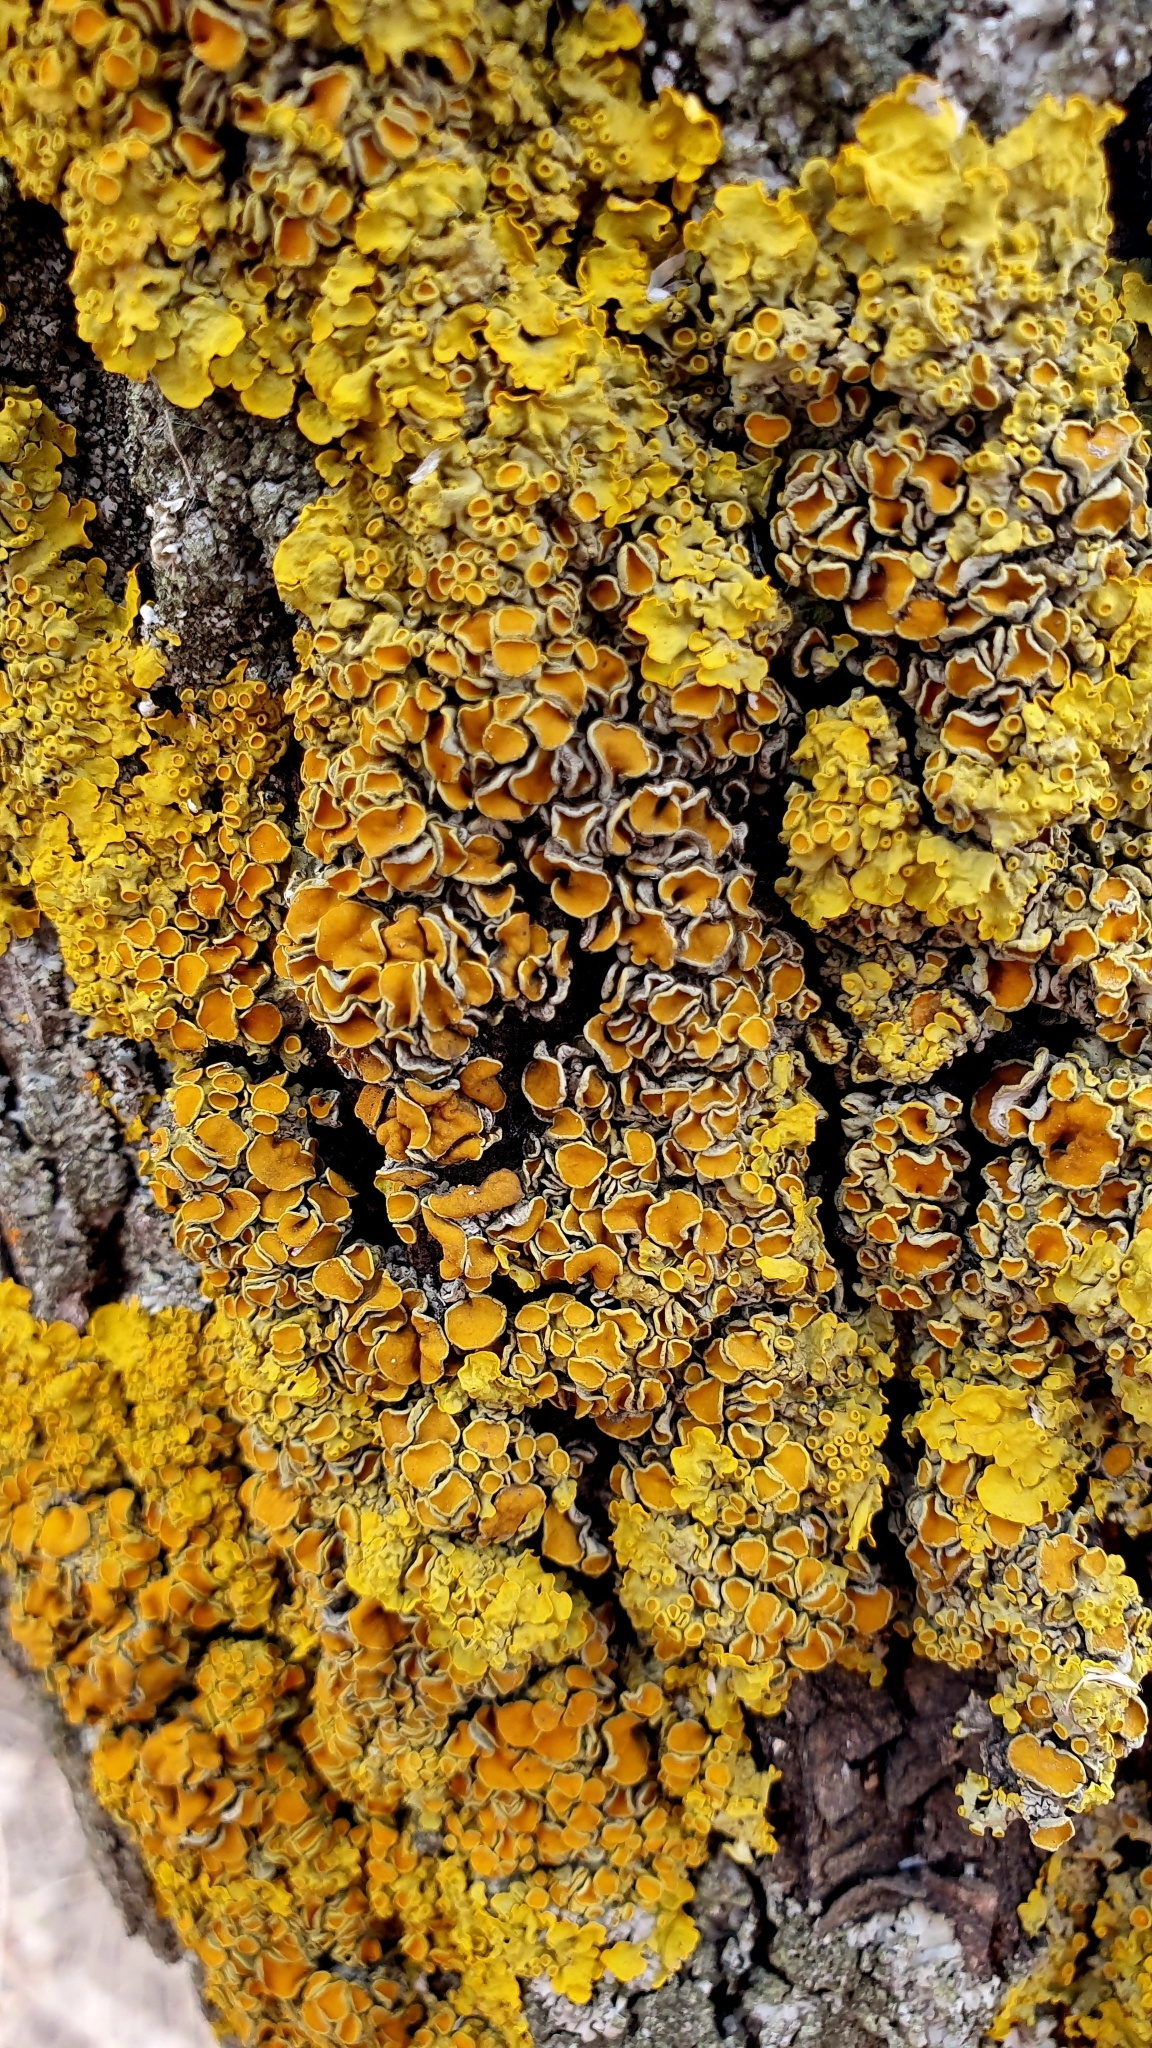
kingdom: Fungi
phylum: Ascomycota
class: Lecanoromycetes
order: Teloschistales
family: Teloschistaceae
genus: Xanthoria
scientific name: Xanthoria parietina
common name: Common orange lichen
